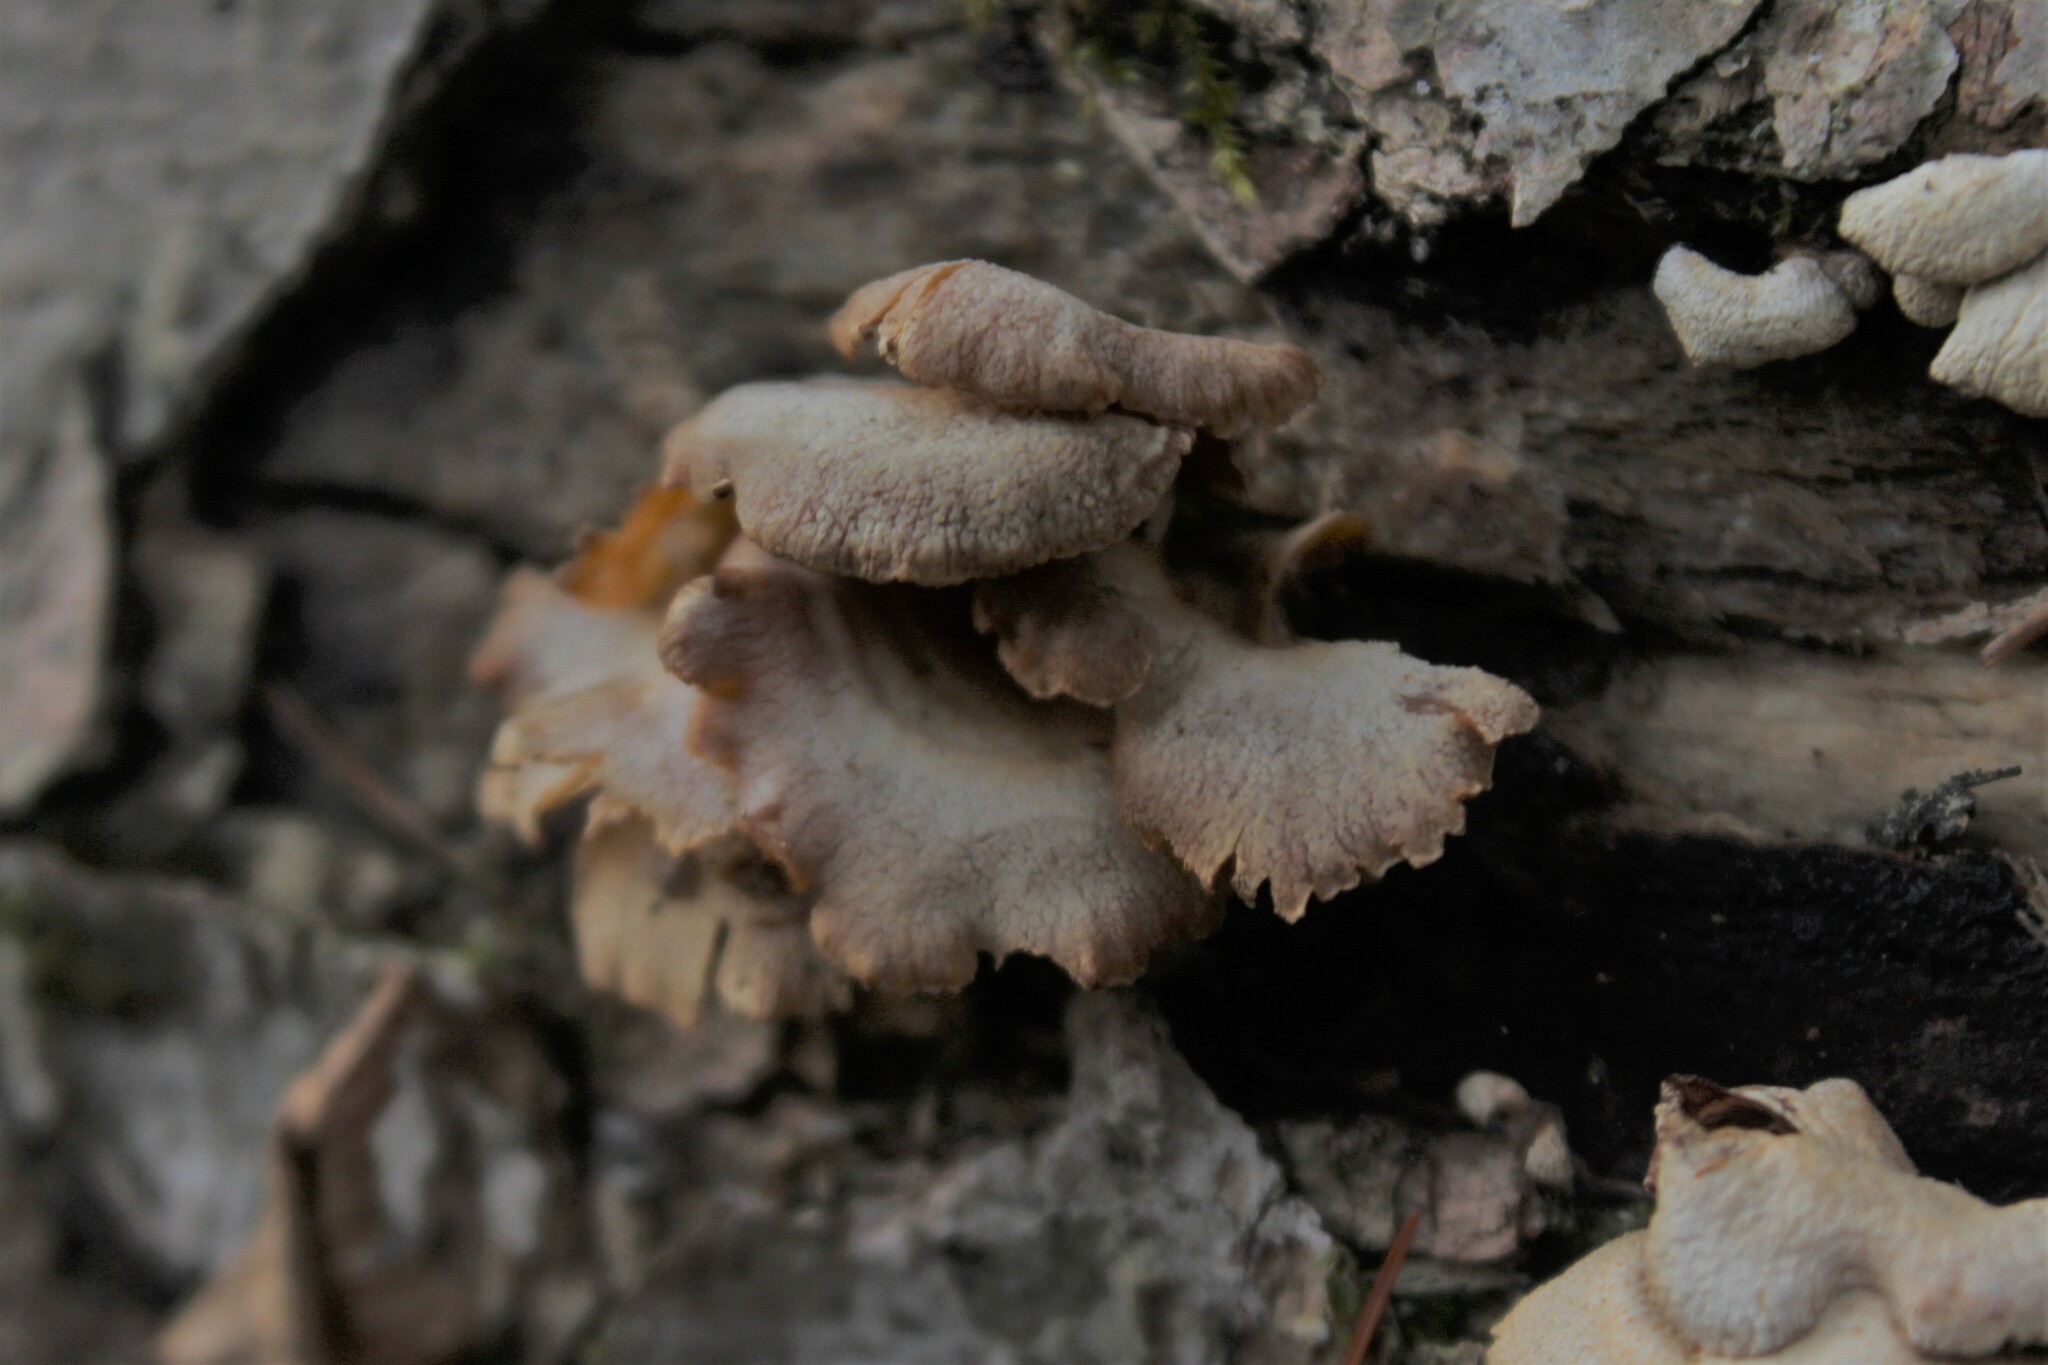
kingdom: Fungi
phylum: Basidiomycota
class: Agaricomycetes
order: Agaricales
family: Mycenaceae
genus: Panellus
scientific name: Panellus stipticus
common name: Bitter oysterling
